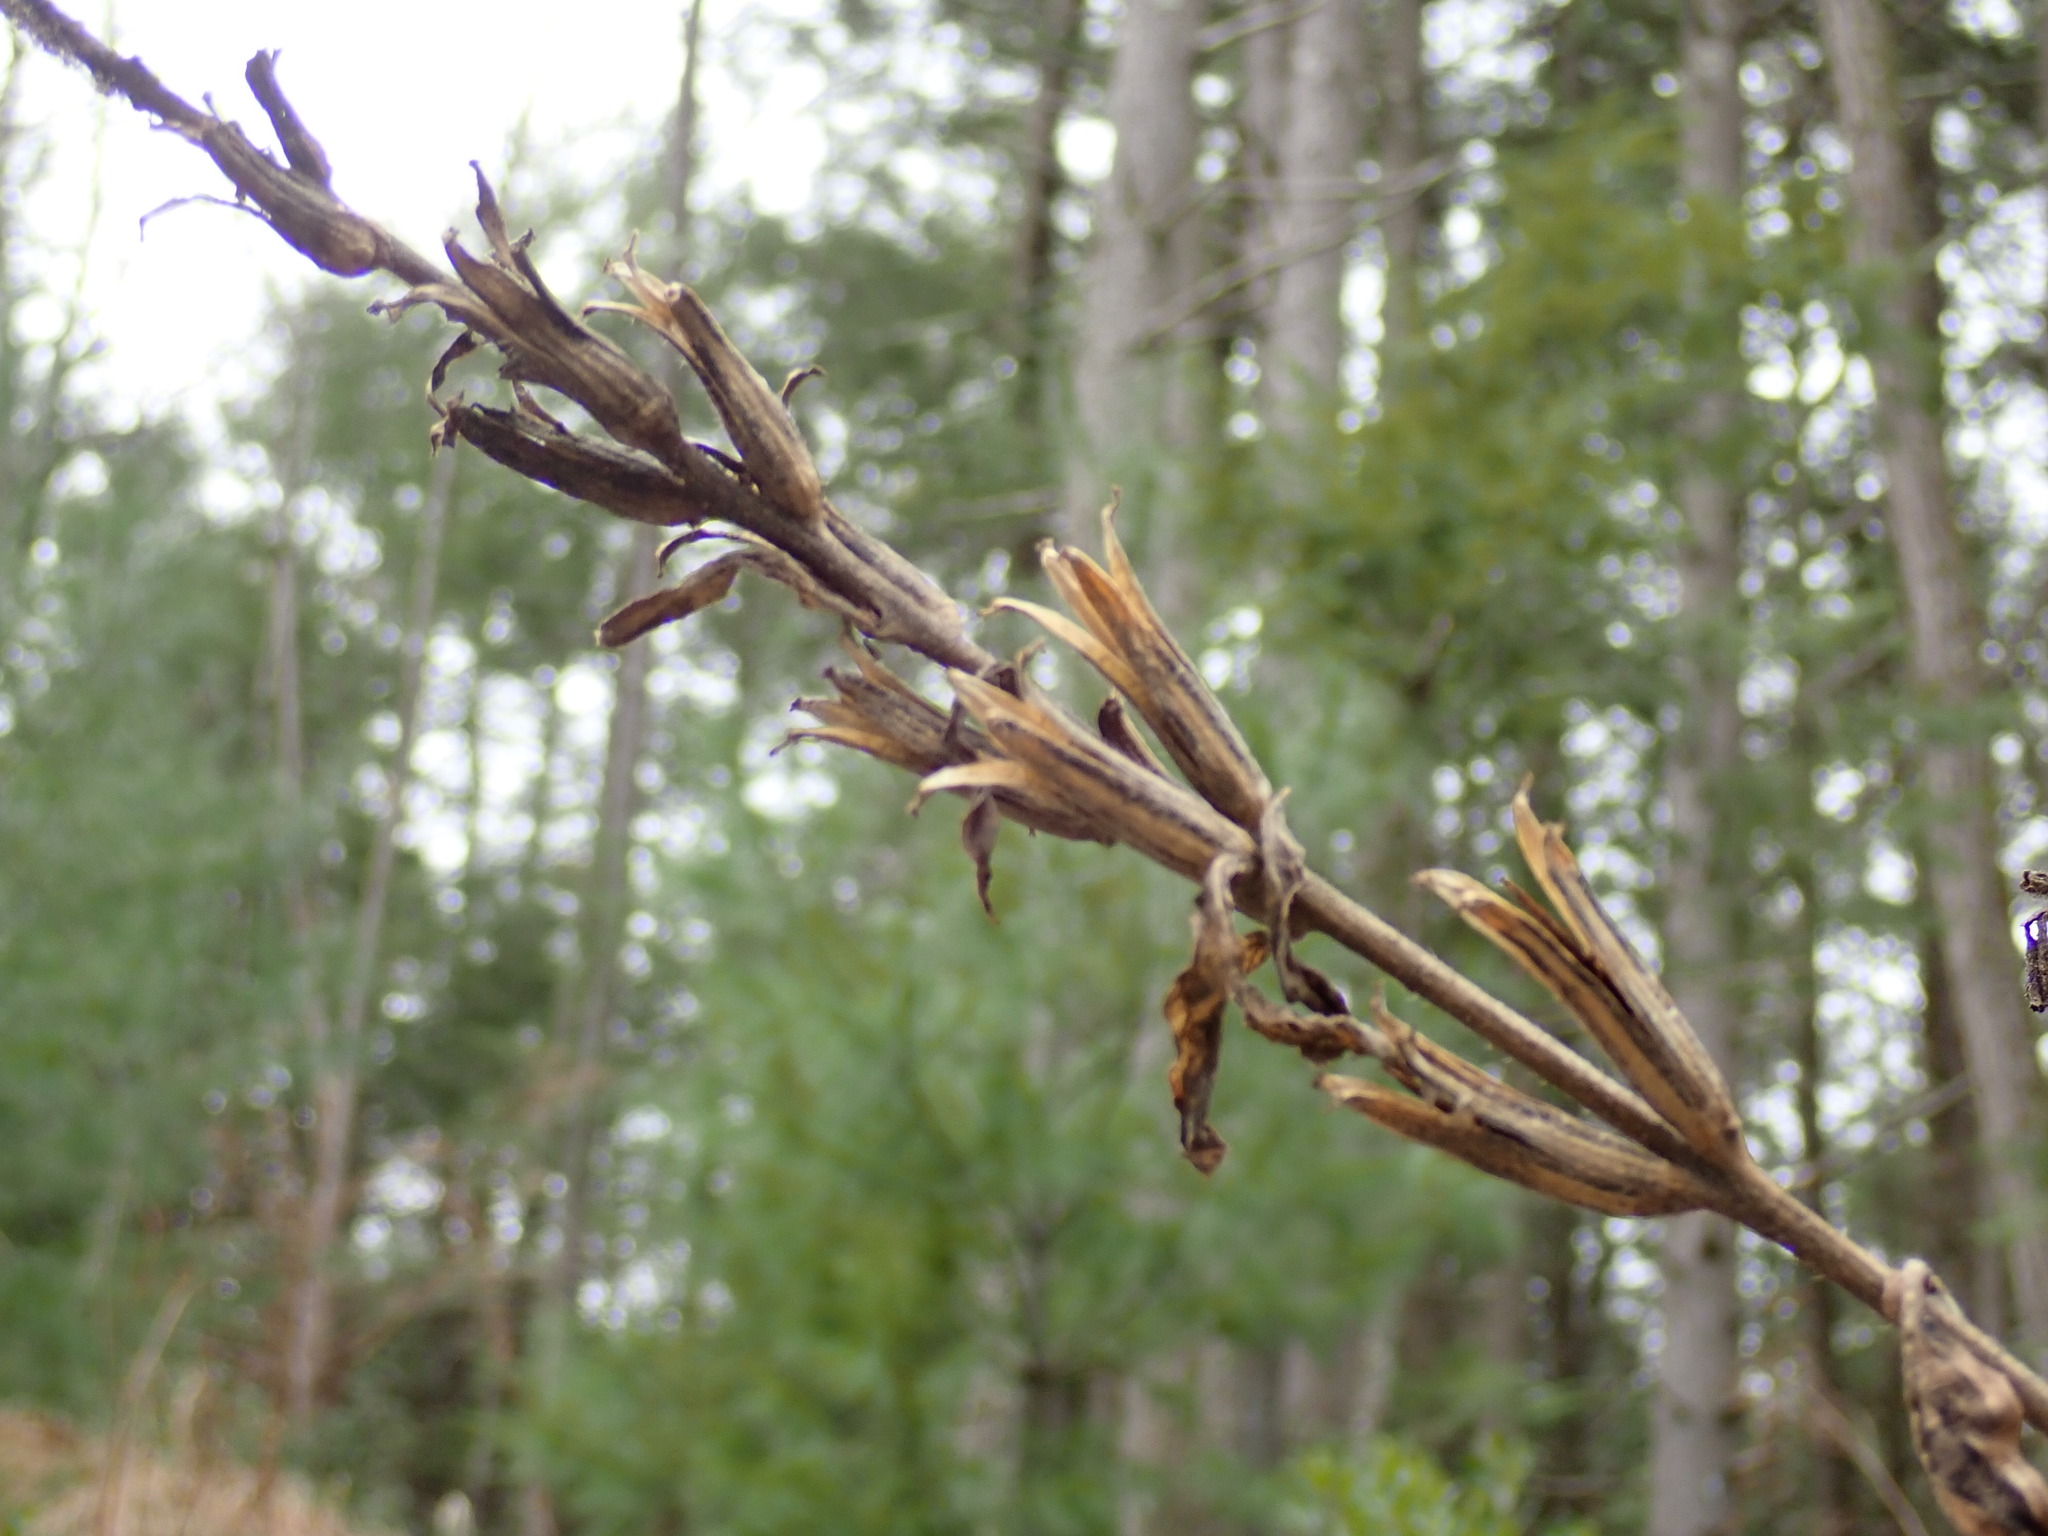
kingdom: Plantae
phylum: Tracheophyta
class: Magnoliopsida
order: Myrtales
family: Onagraceae
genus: Oenothera
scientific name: Oenothera biennis
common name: Common evening-primrose
